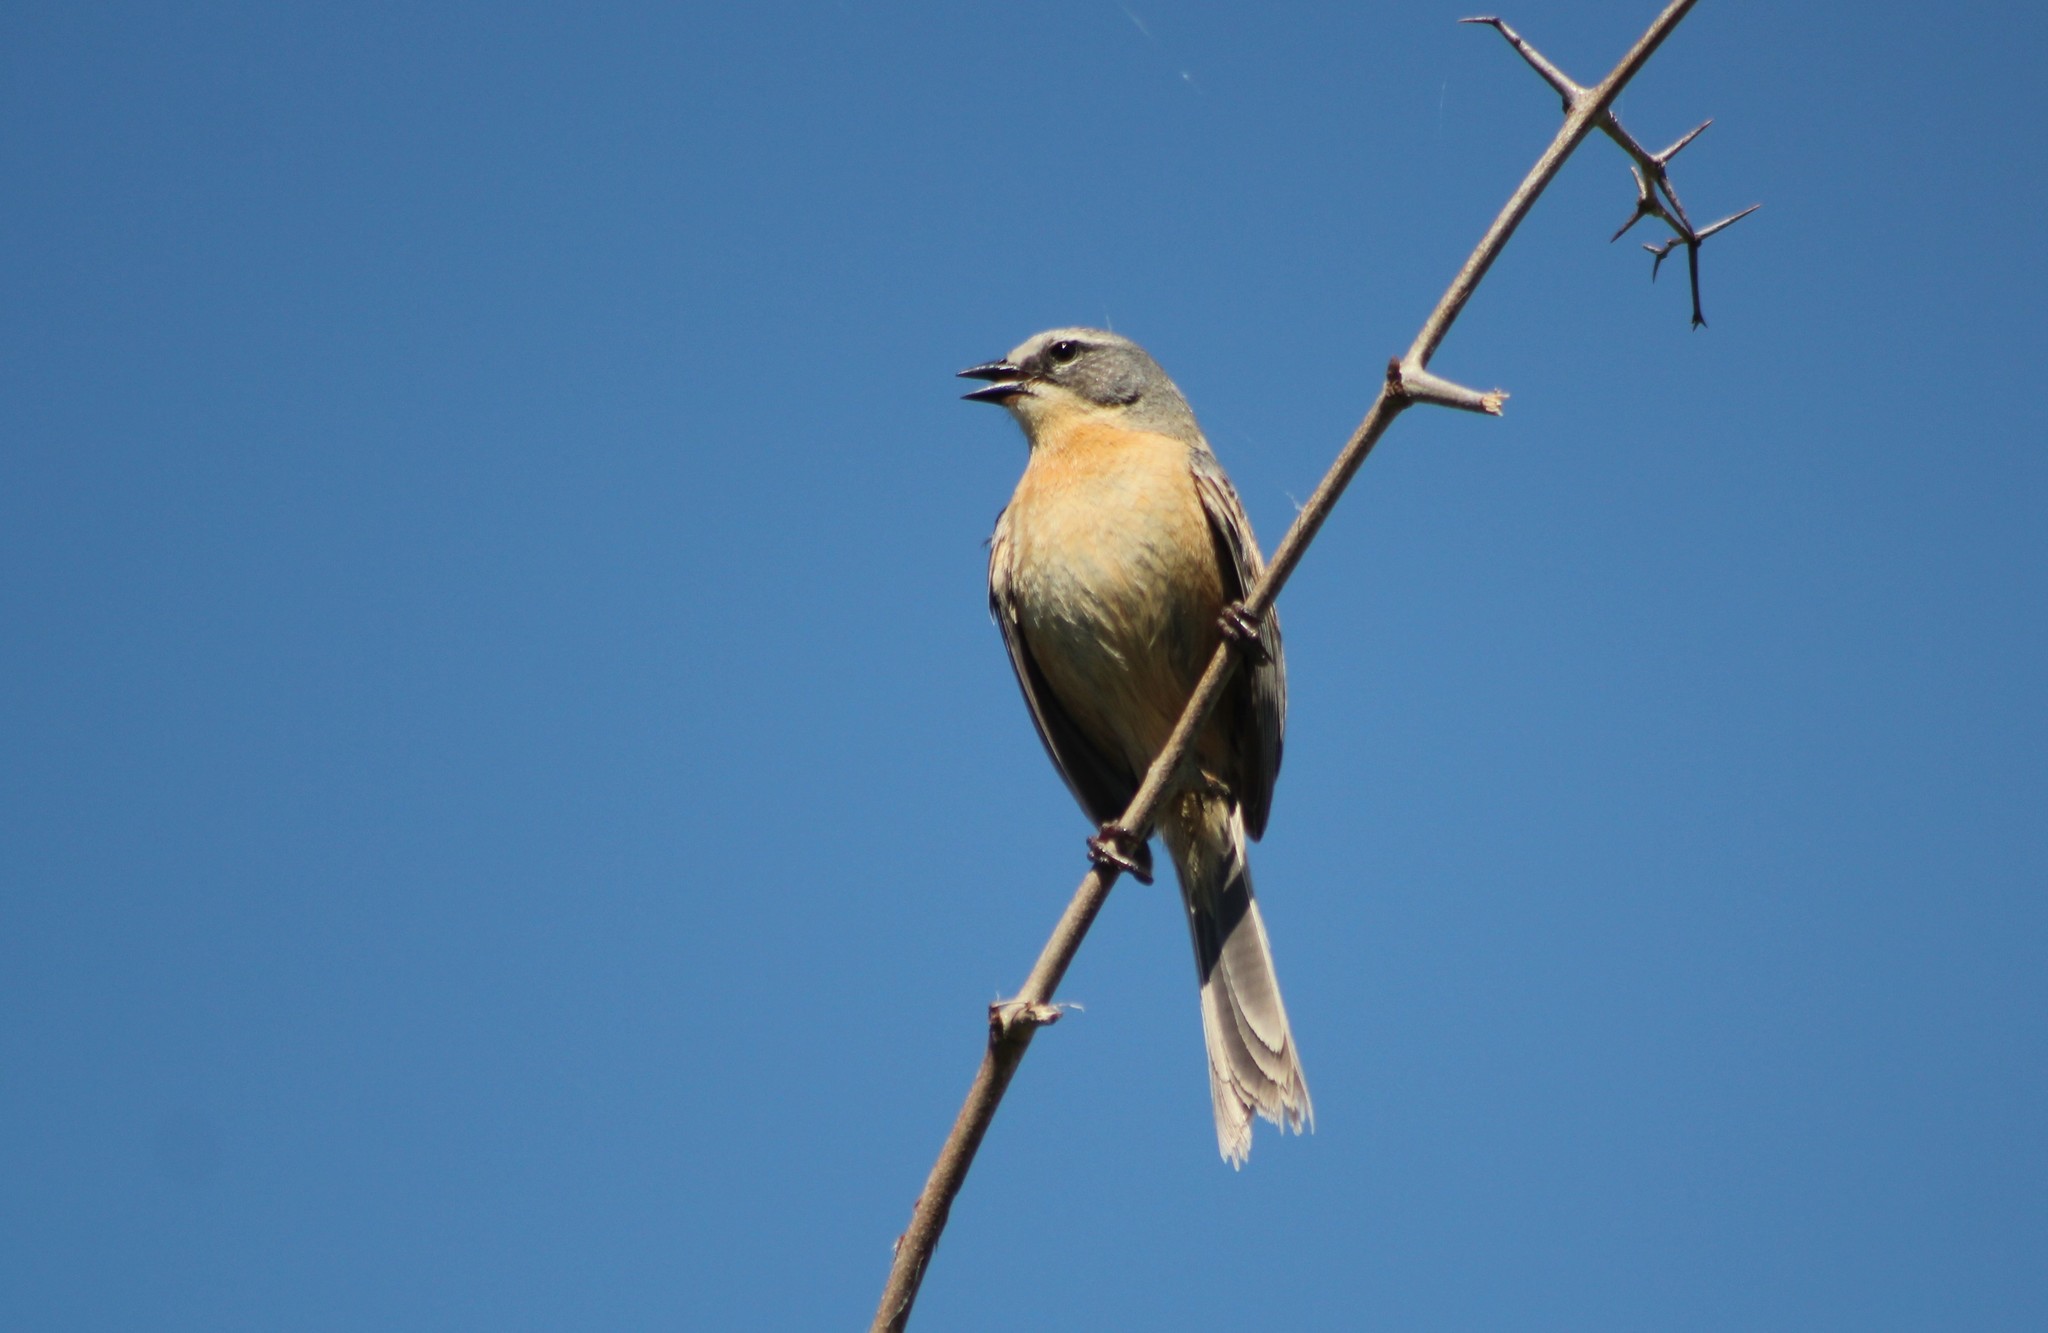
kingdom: Animalia
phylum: Chordata
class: Aves
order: Passeriformes
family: Thraupidae
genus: Donacospiza
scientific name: Donacospiza albifrons
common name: Long-tailed reed finch
